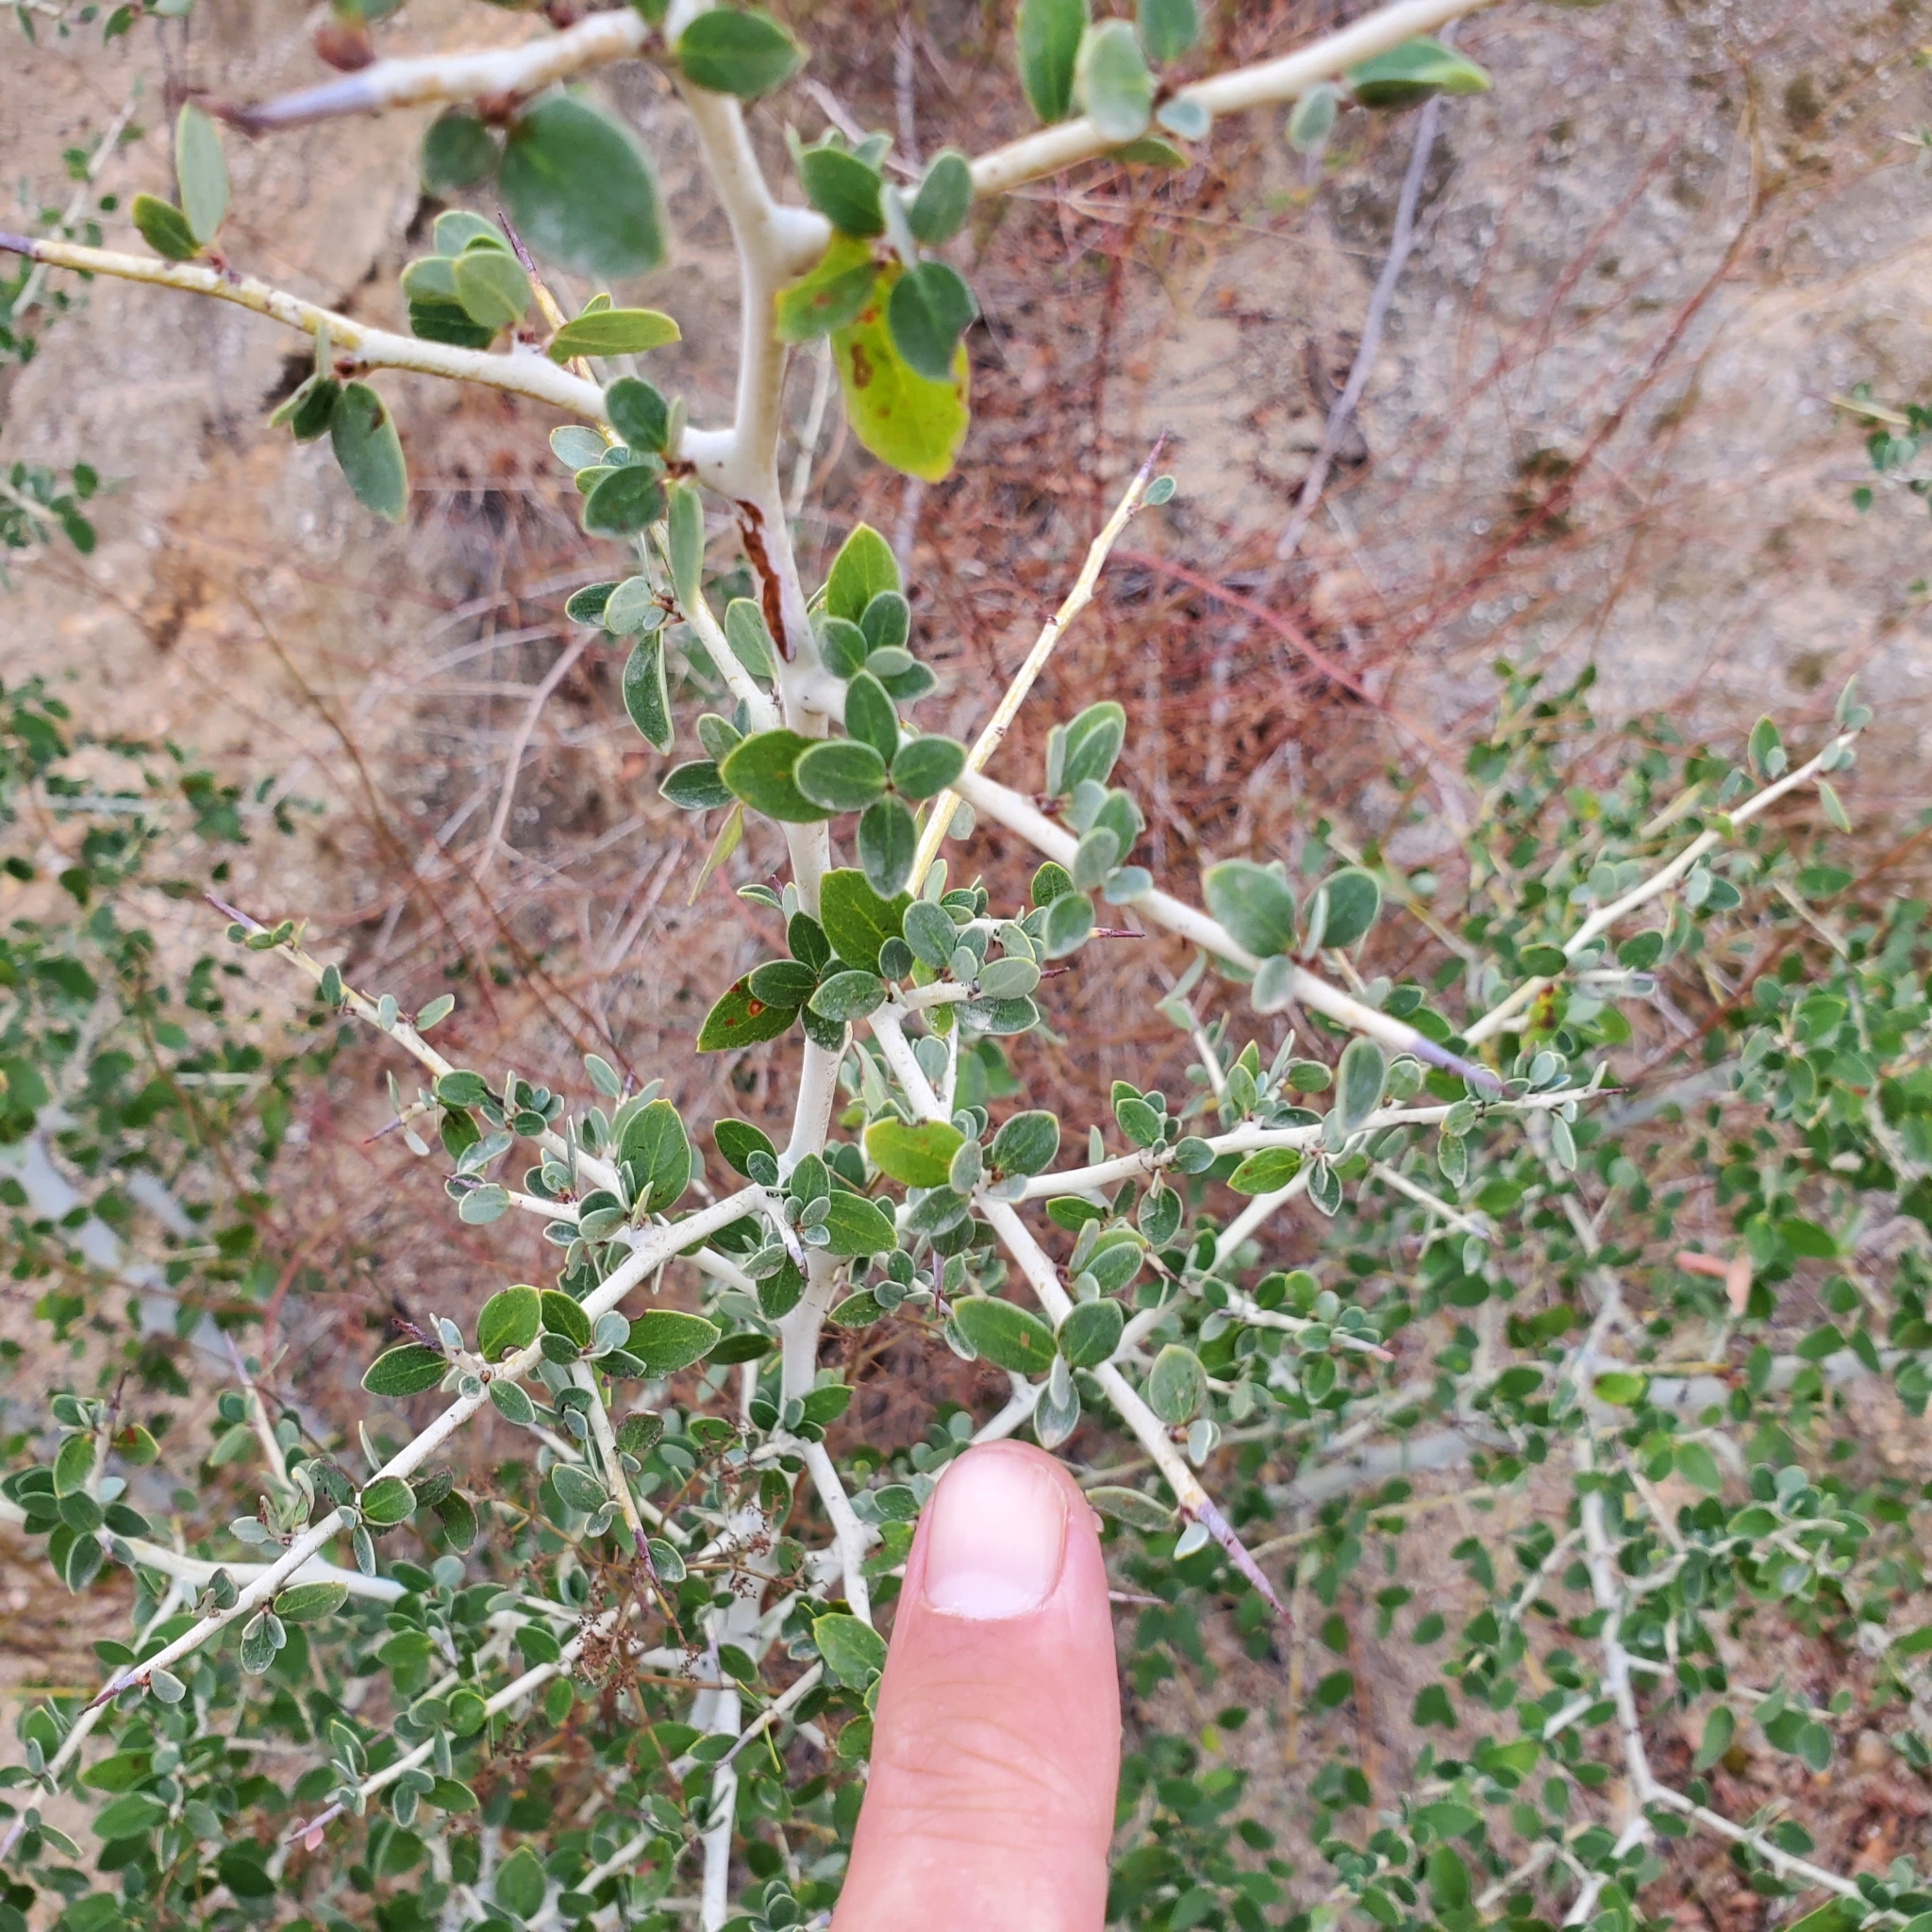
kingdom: Plantae
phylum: Tracheophyta
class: Magnoliopsida
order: Rosales
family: Rhamnaceae
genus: Ceanothus
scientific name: Ceanothus leucodermis
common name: Chaparral whitethorn
